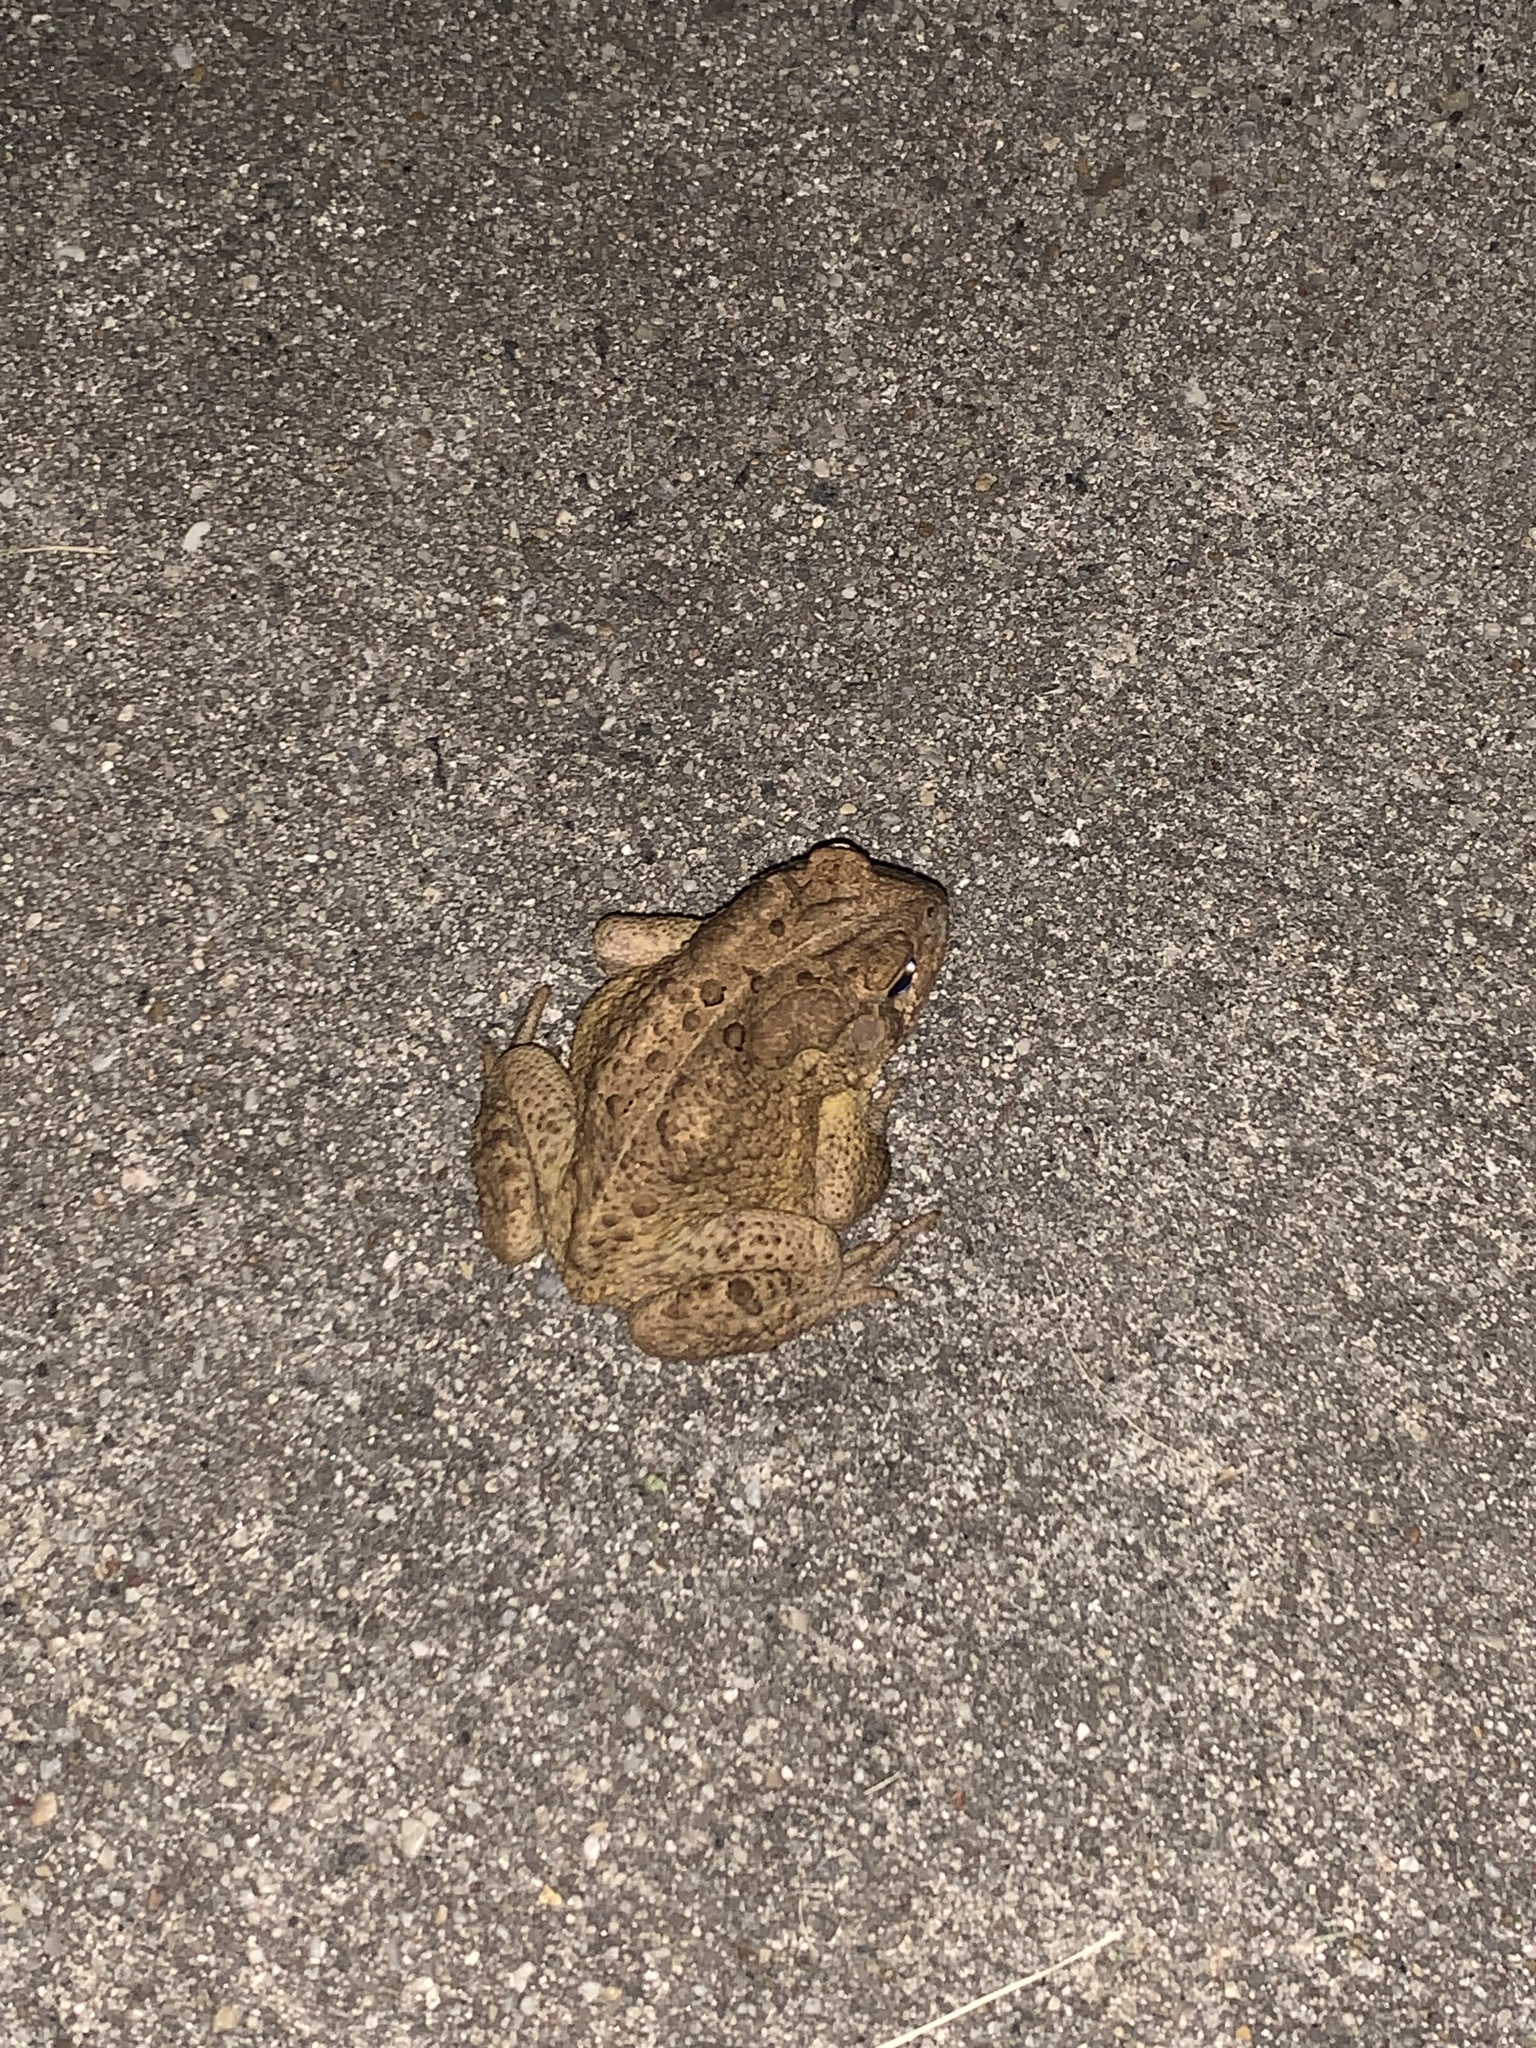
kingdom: Animalia
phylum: Chordata
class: Amphibia
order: Anura
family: Bufonidae
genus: Anaxyrus
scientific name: Anaxyrus americanus
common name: American toad
